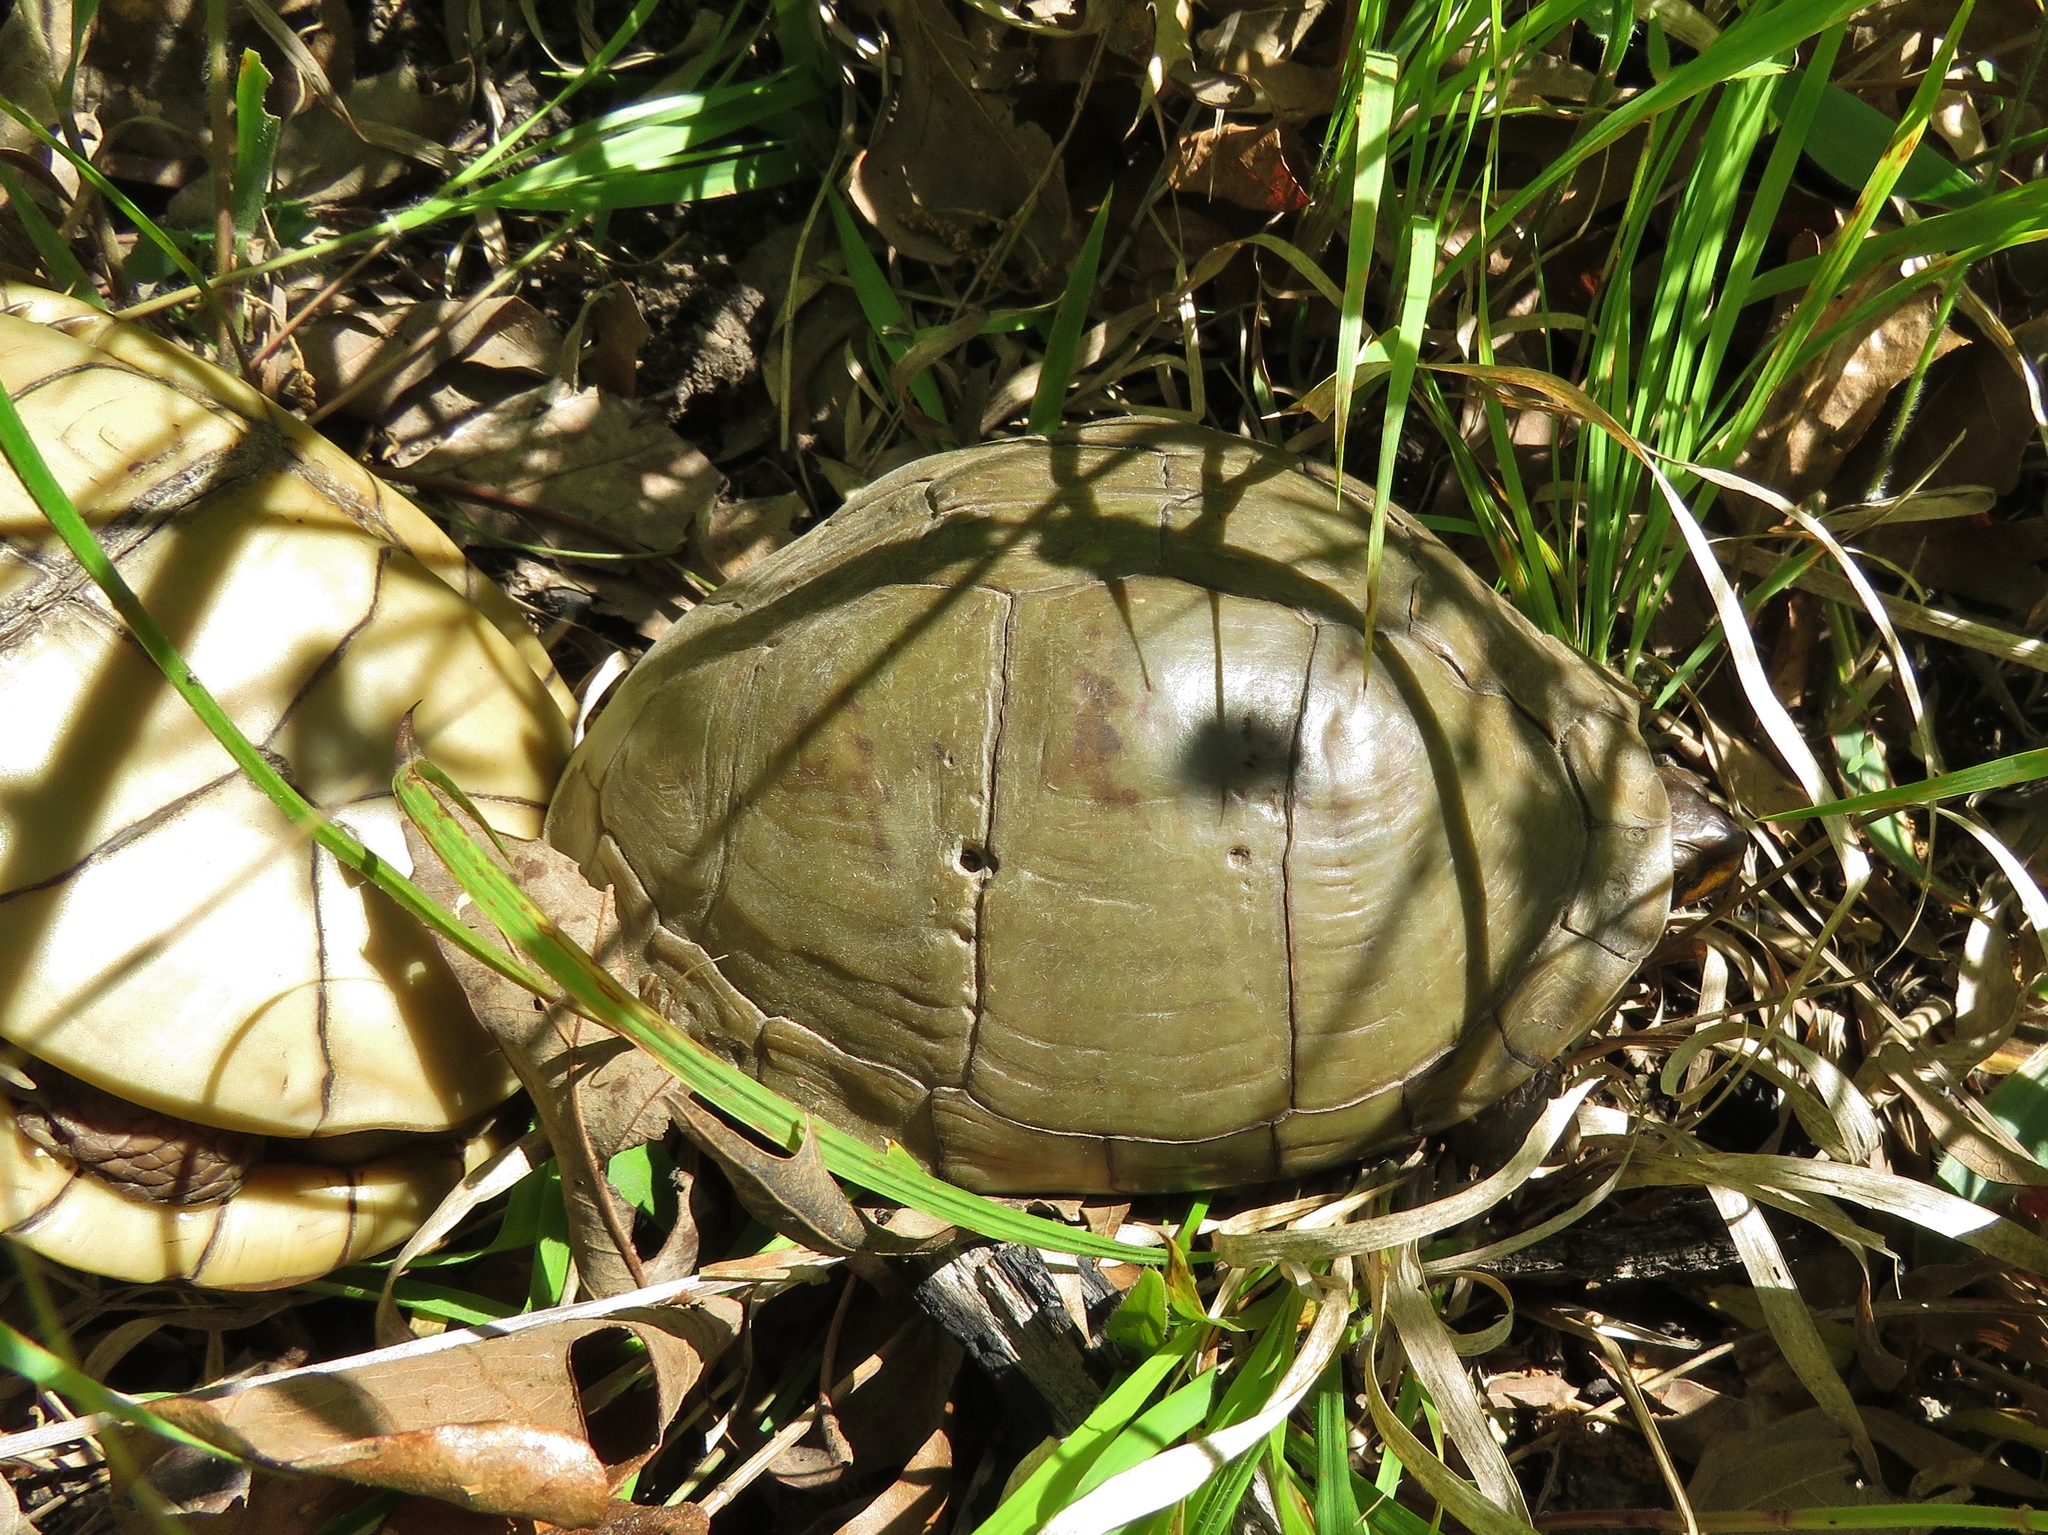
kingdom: Animalia
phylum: Chordata
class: Testudines
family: Emydidae
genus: Terrapene
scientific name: Terrapene carolina
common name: Common box turtle
